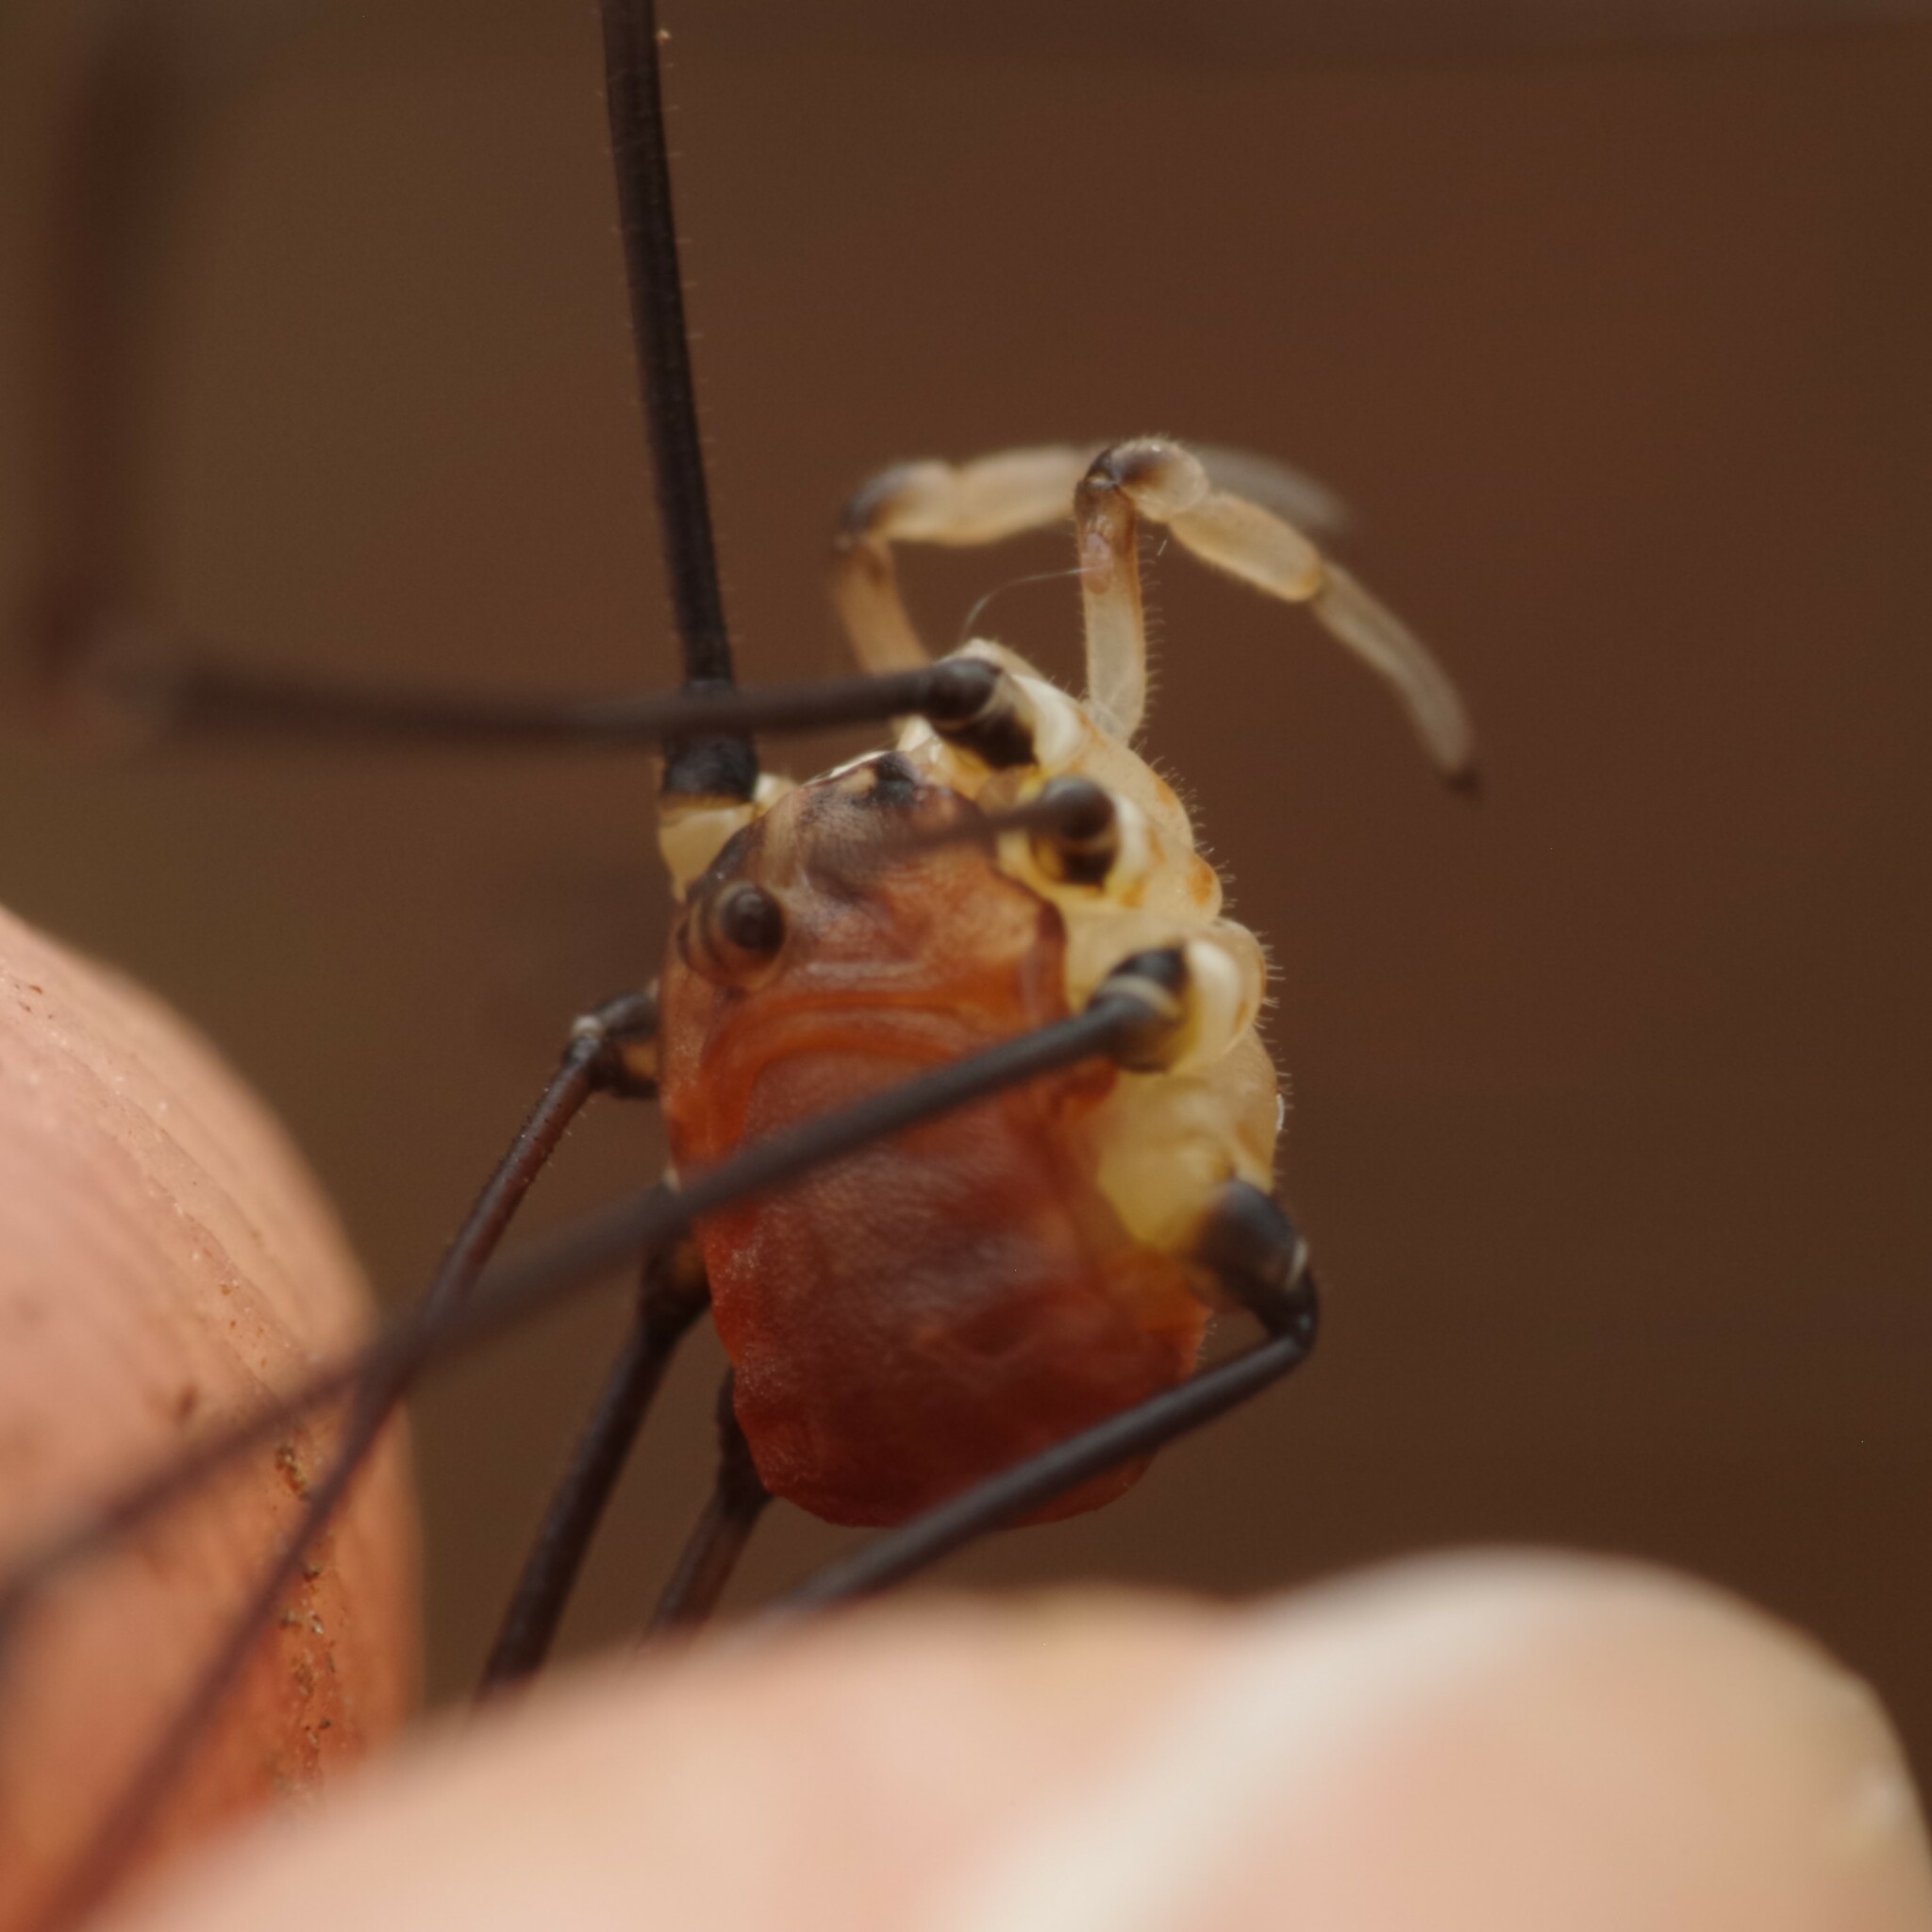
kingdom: Animalia
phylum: Arthropoda
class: Arachnida
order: Opiliones
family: Sclerosomatidae
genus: Leiobunum
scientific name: Leiobunum blackwalli
